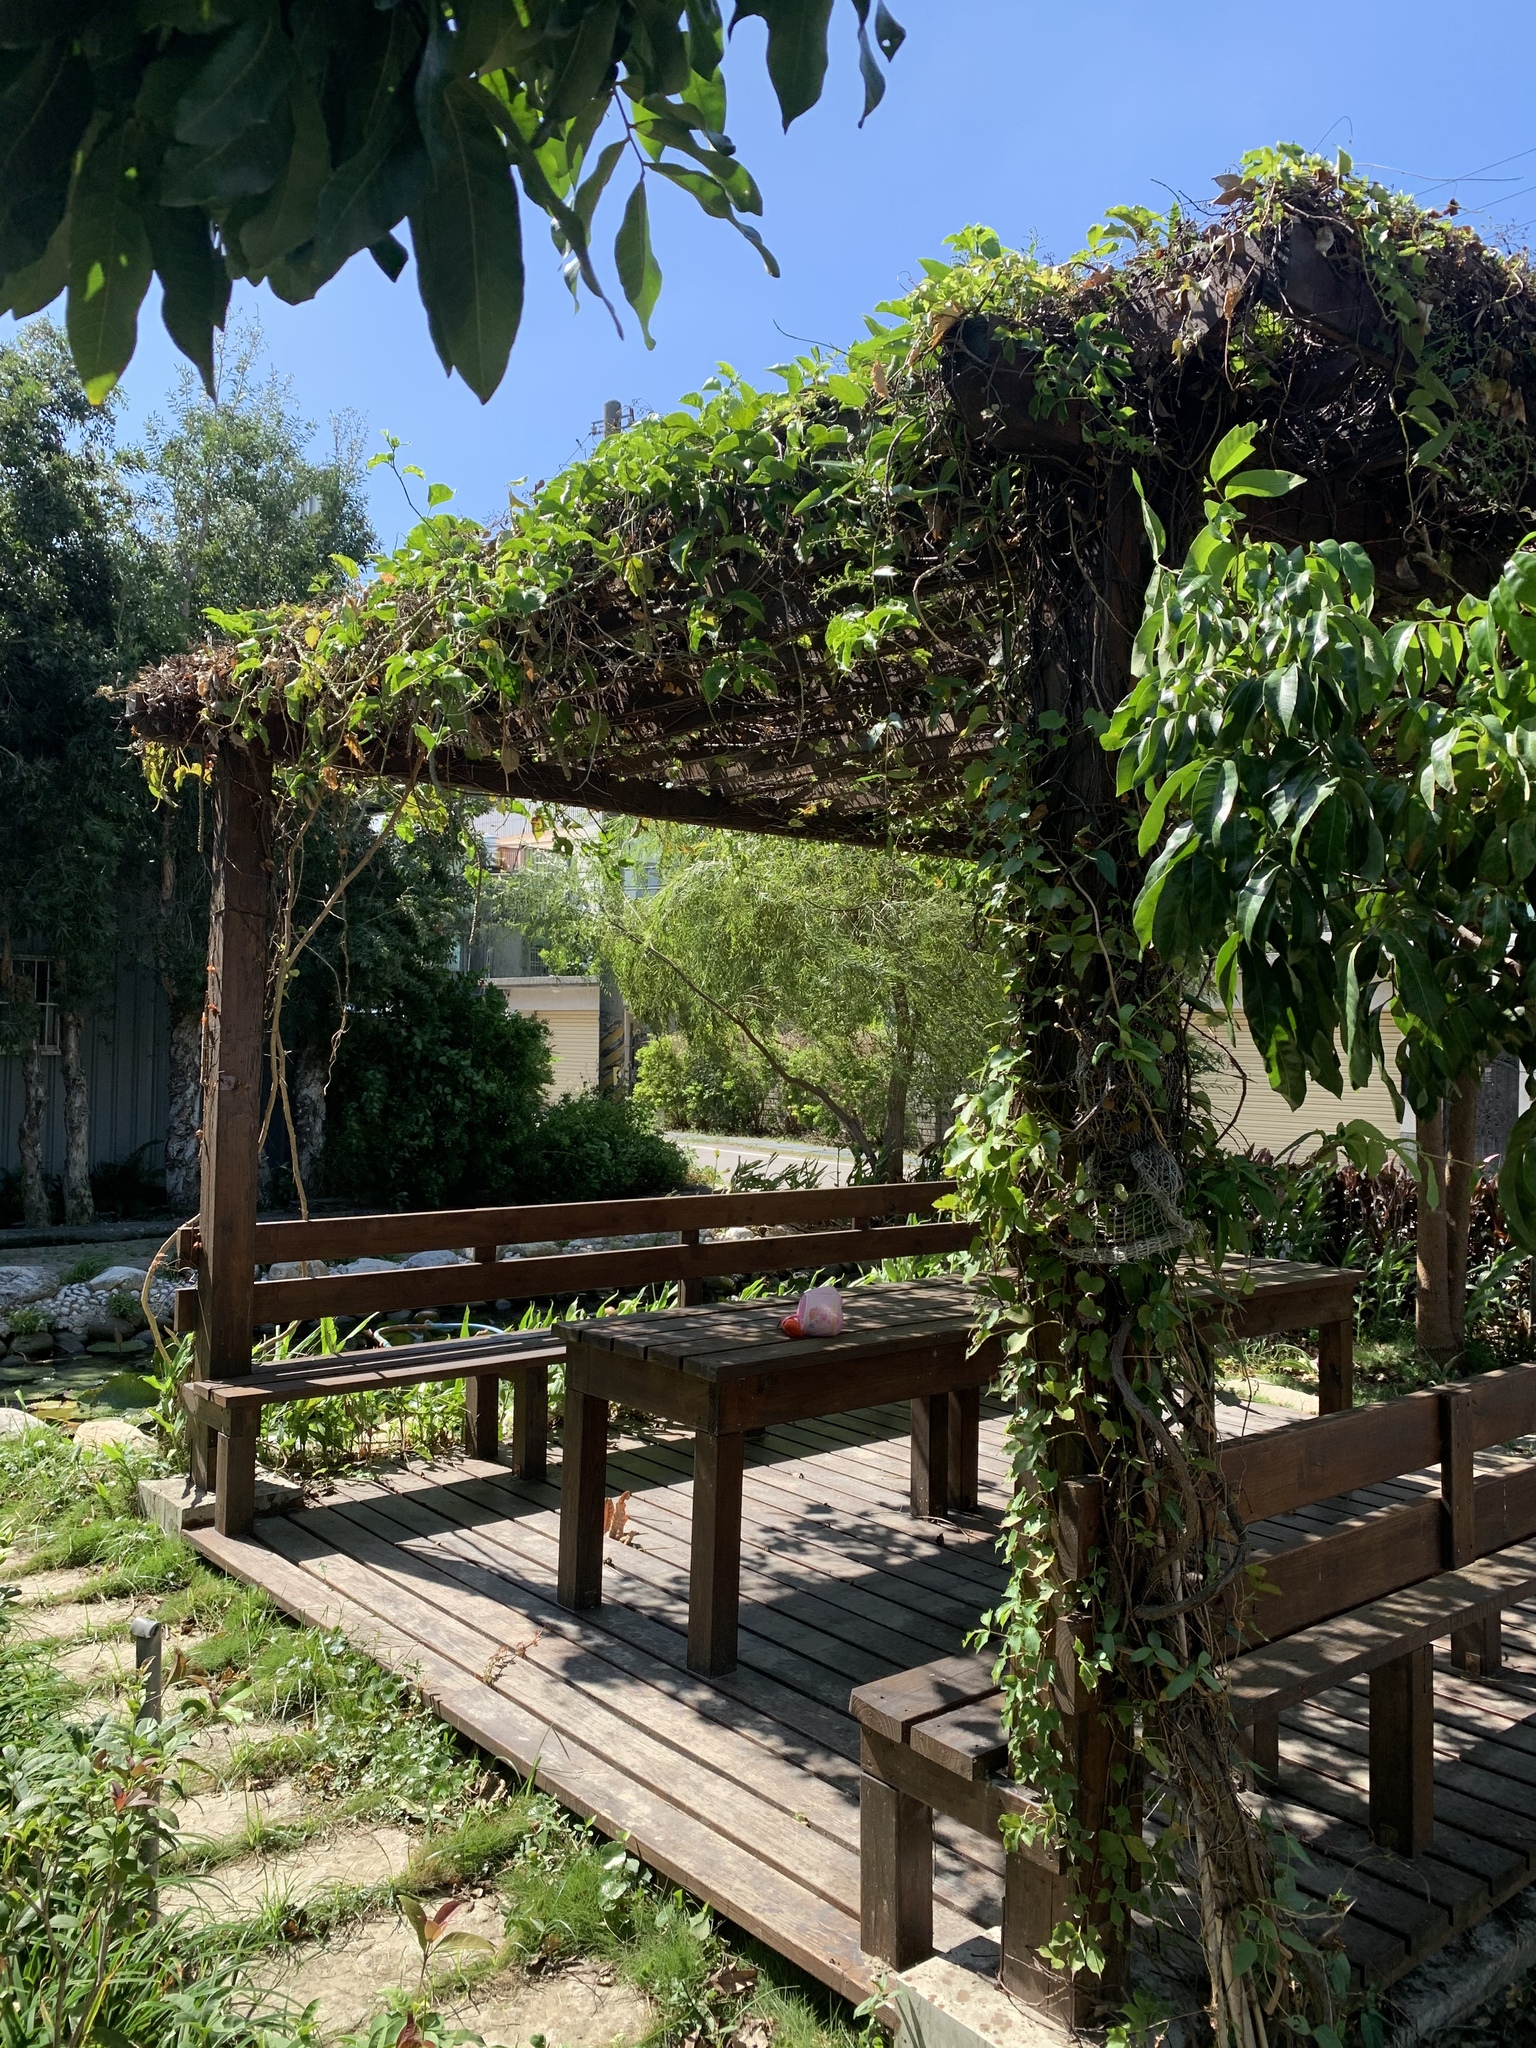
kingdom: Plantae
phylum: Tracheophyta
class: Magnoliopsida
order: Vitales
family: Vitaceae
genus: Parthenocissus
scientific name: Parthenocissus tricuspidata
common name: Boston ivy
